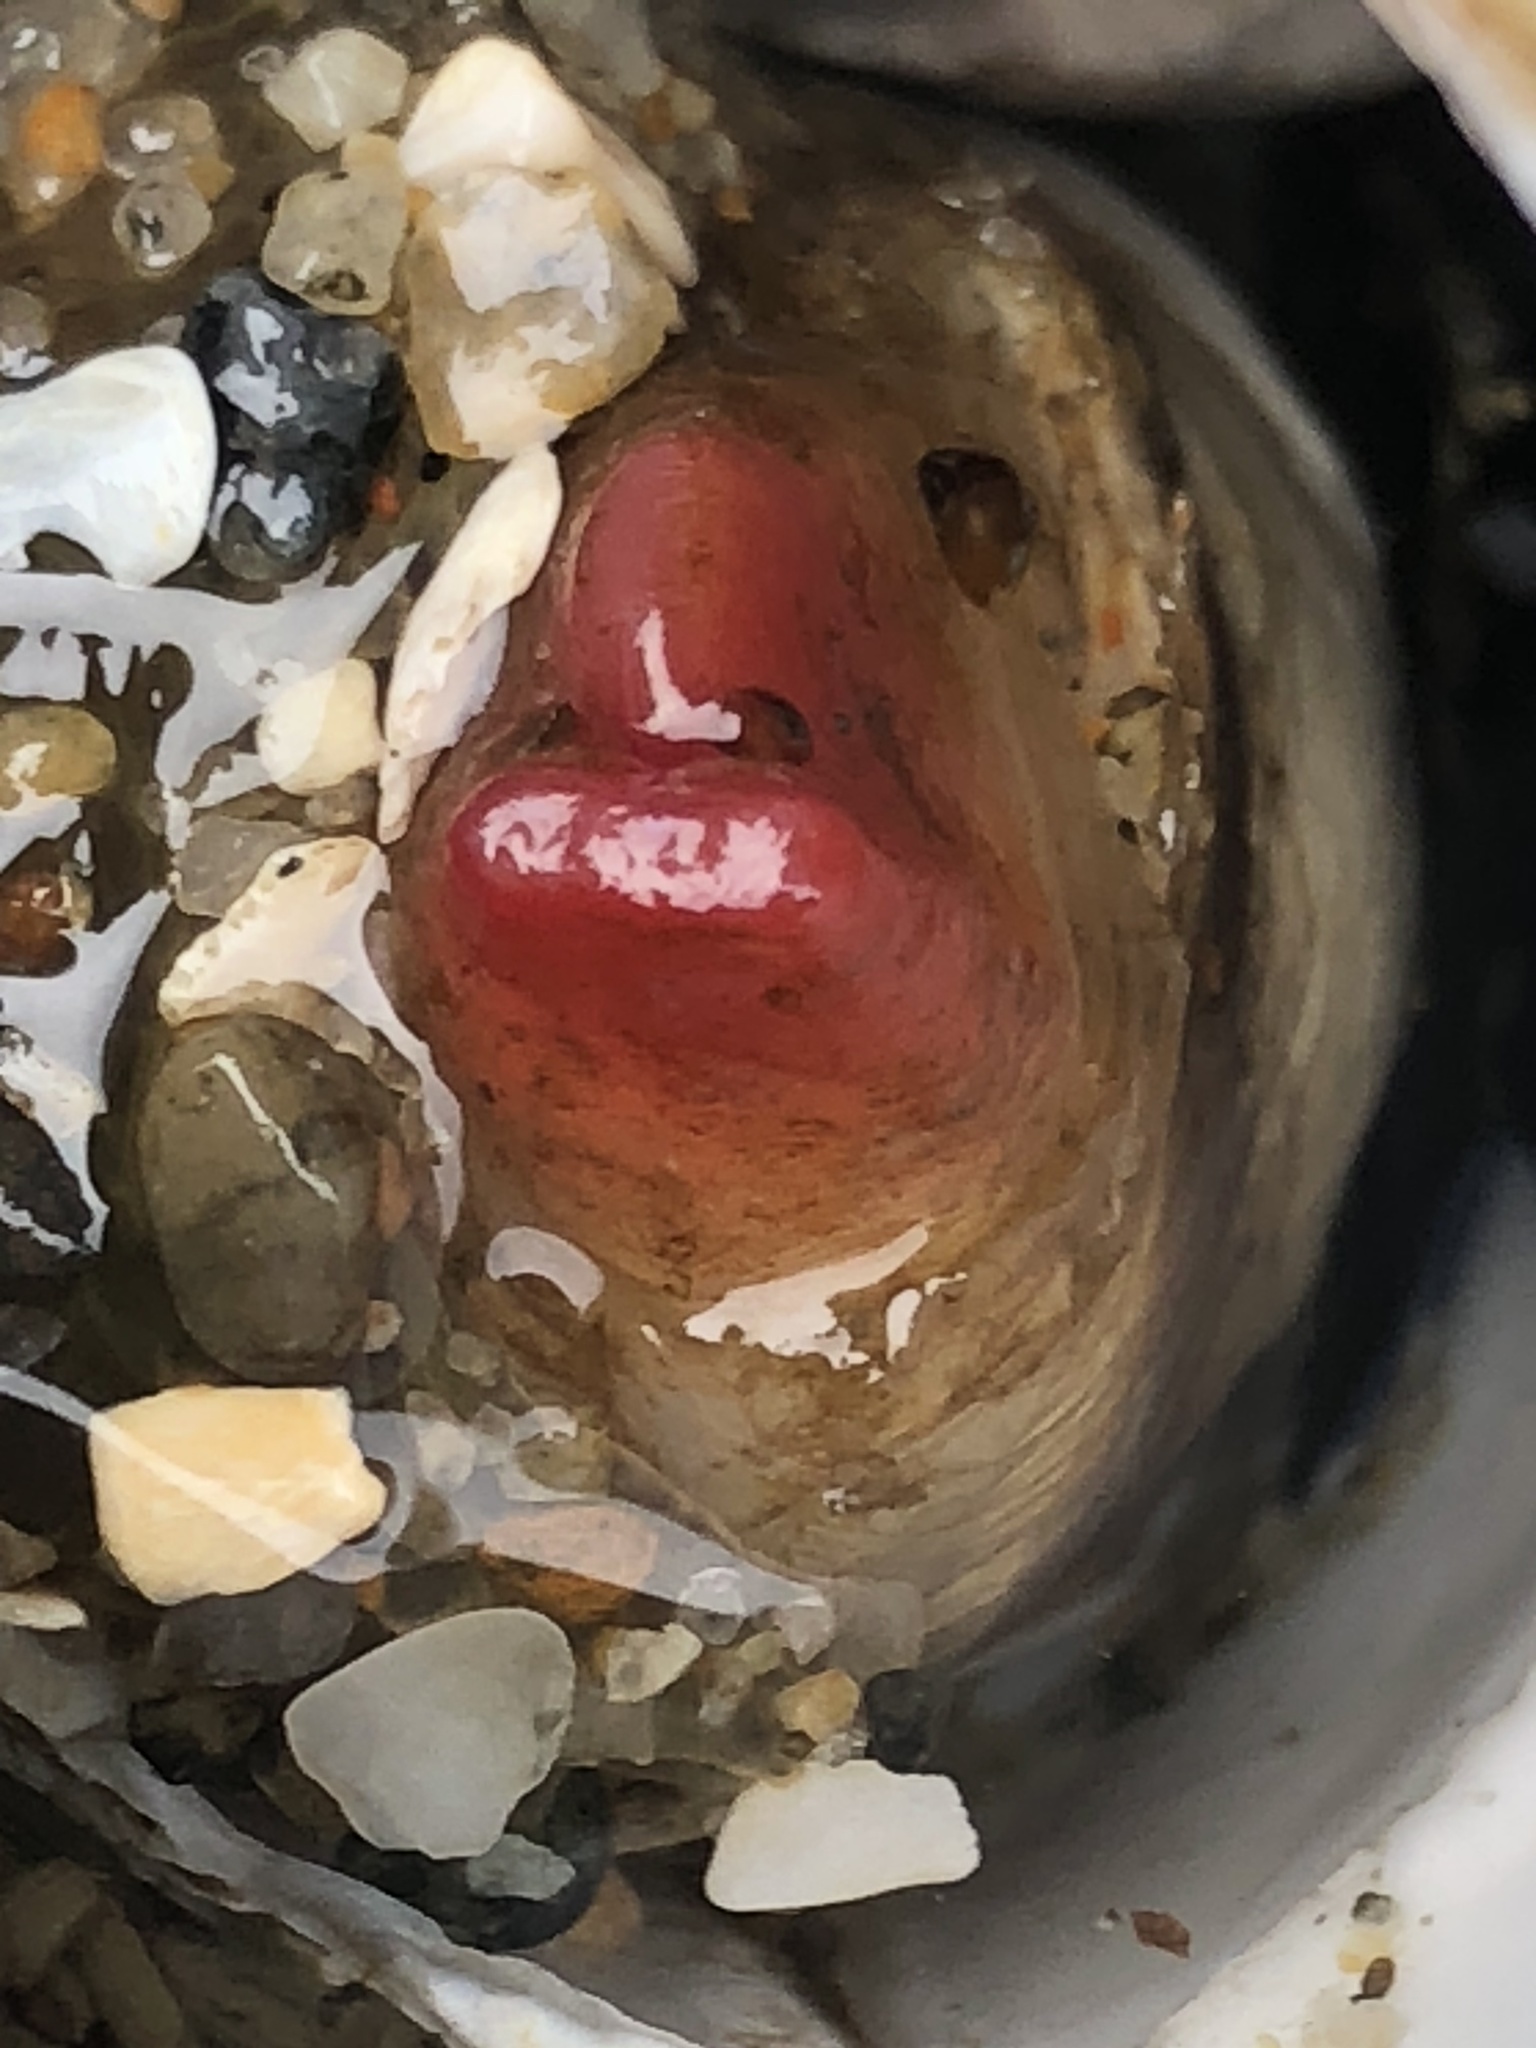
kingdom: Animalia
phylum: Mollusca
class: Bivalvia
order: Adapedonta
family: Hiatellidae
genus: Hiatella
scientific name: Hiatella arctica
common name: Arctic hiatella
